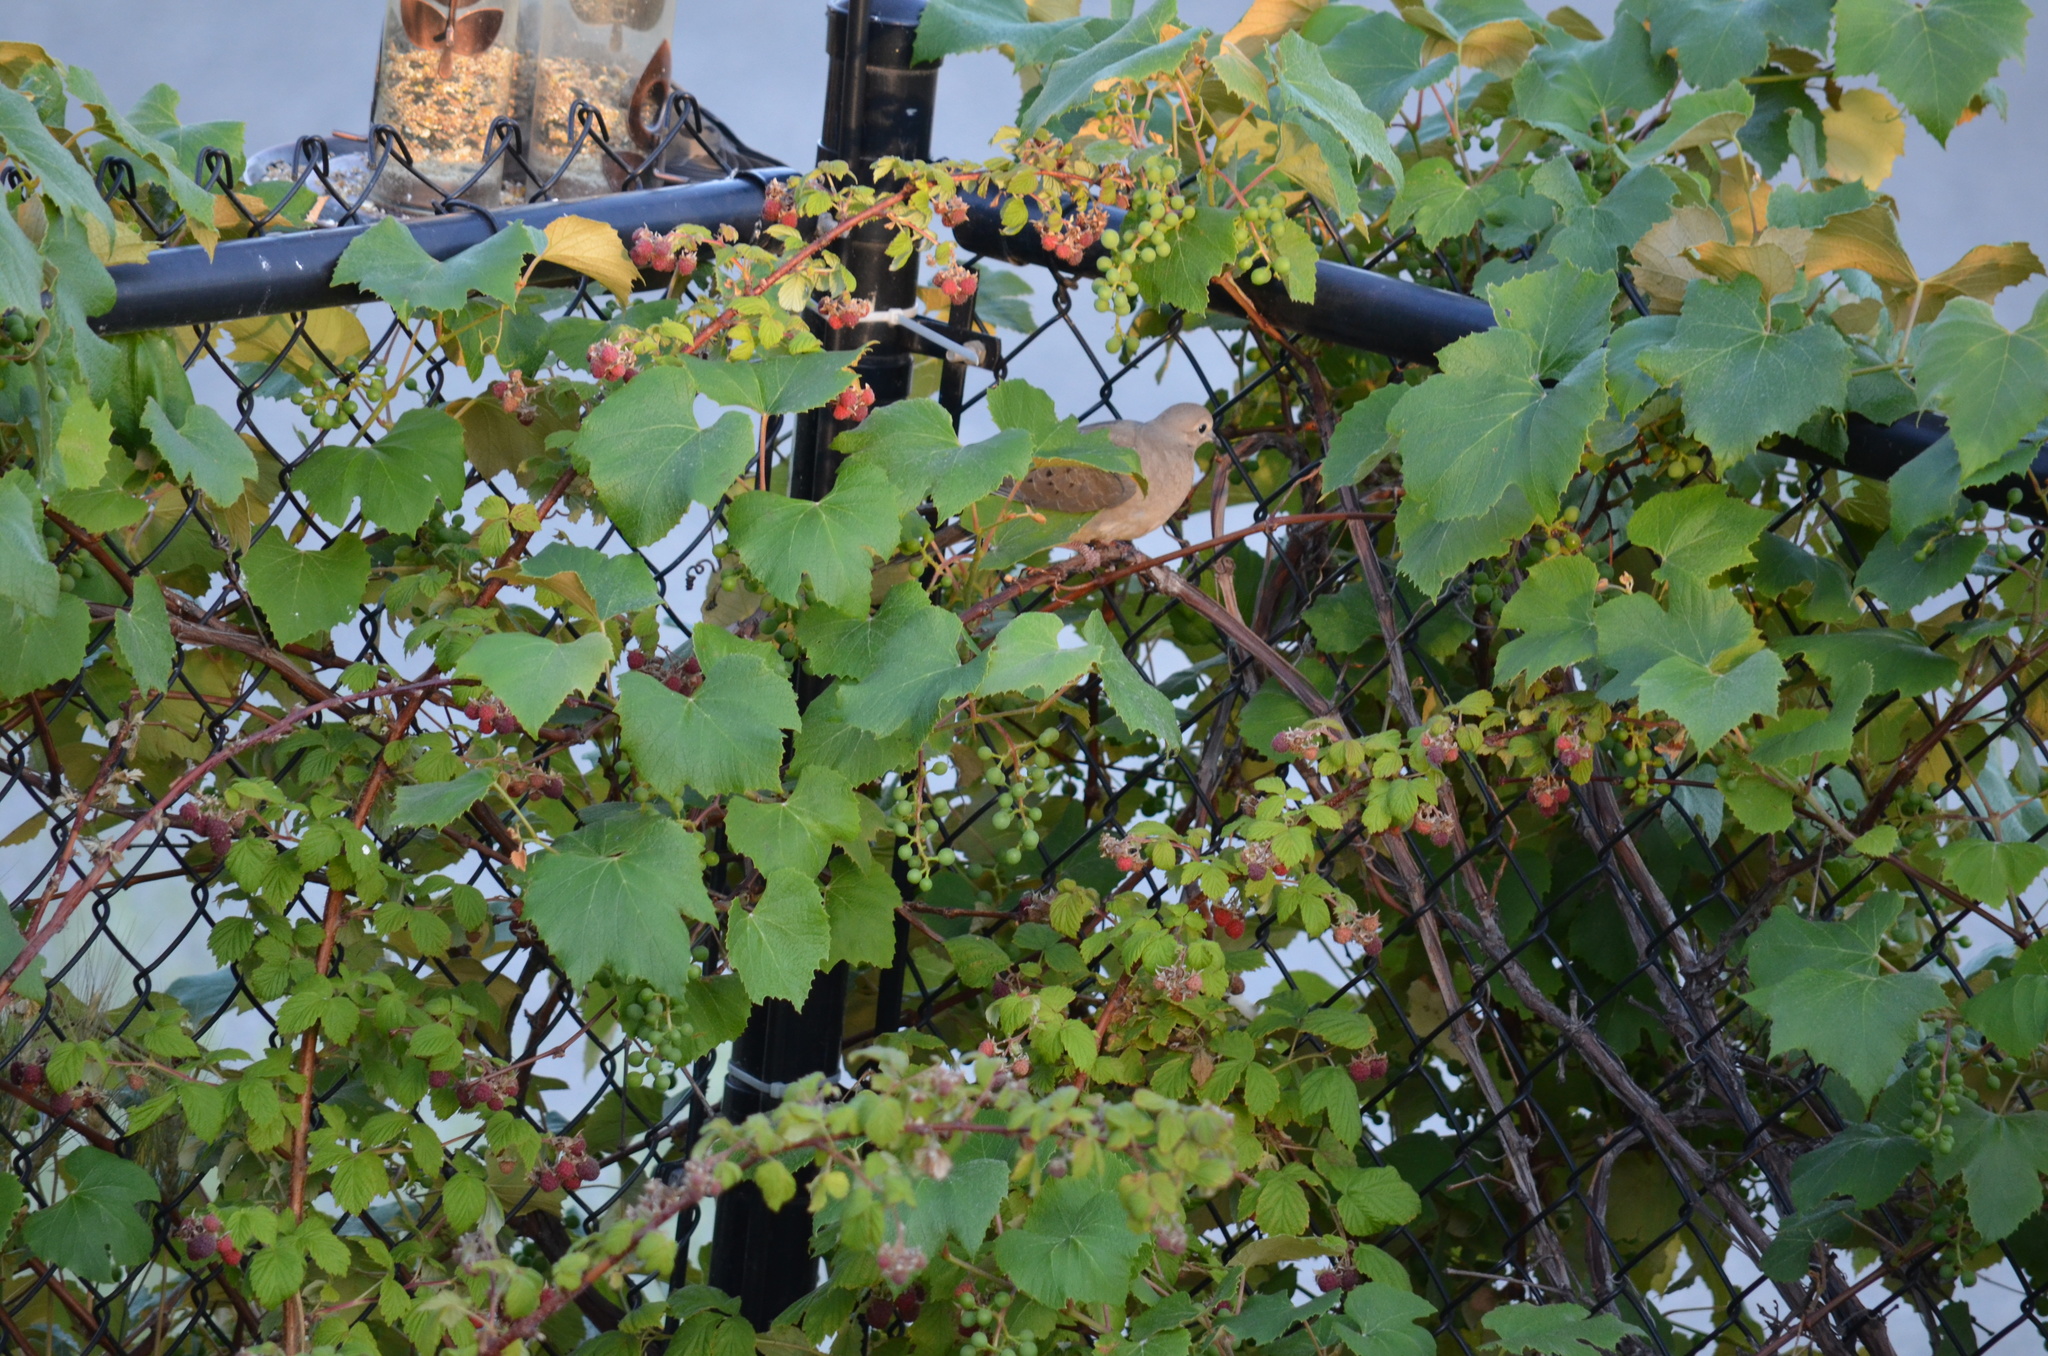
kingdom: Animalia
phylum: Chordata
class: Aves
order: Columbiformes
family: Columbidae
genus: Zenaida
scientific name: Zenaida macroura
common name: Mourning dove
